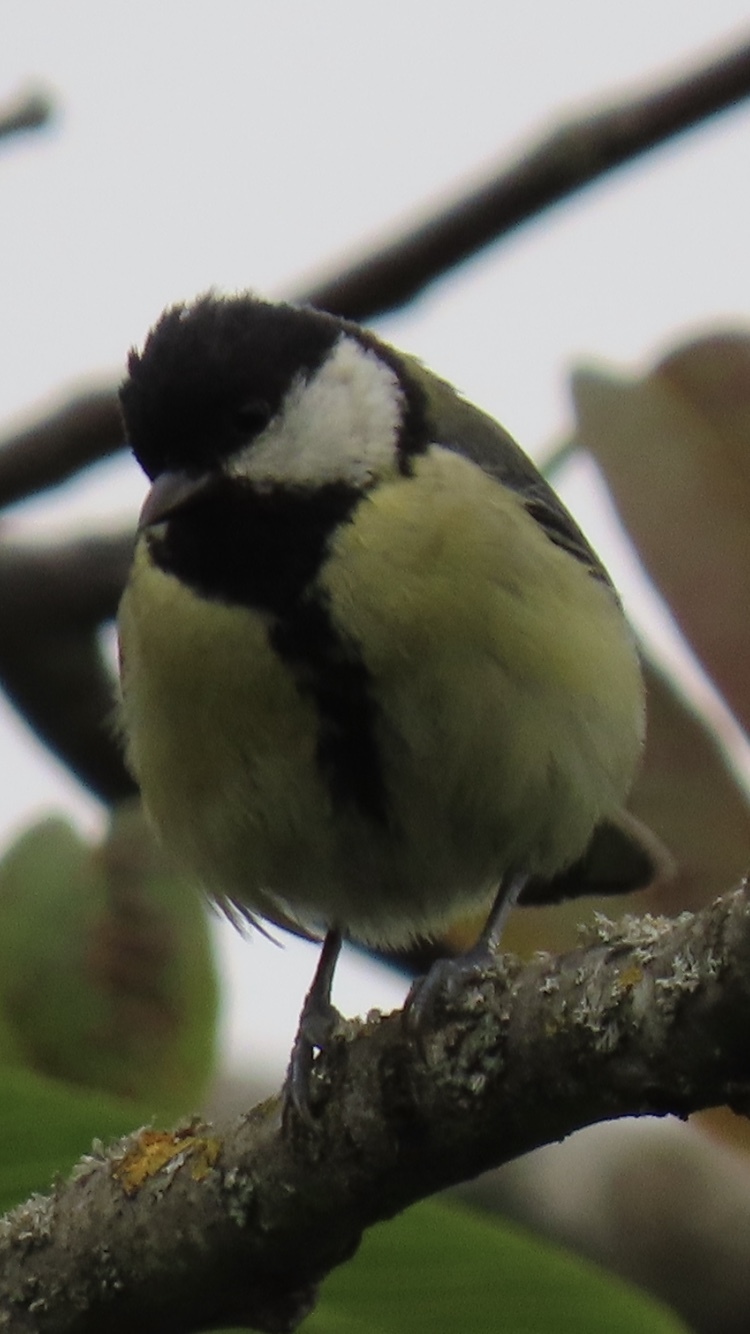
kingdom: Animalia
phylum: Chordata
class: Aves
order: Passeriformes
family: Paridae
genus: Parus
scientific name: Parus major
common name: Great tit
